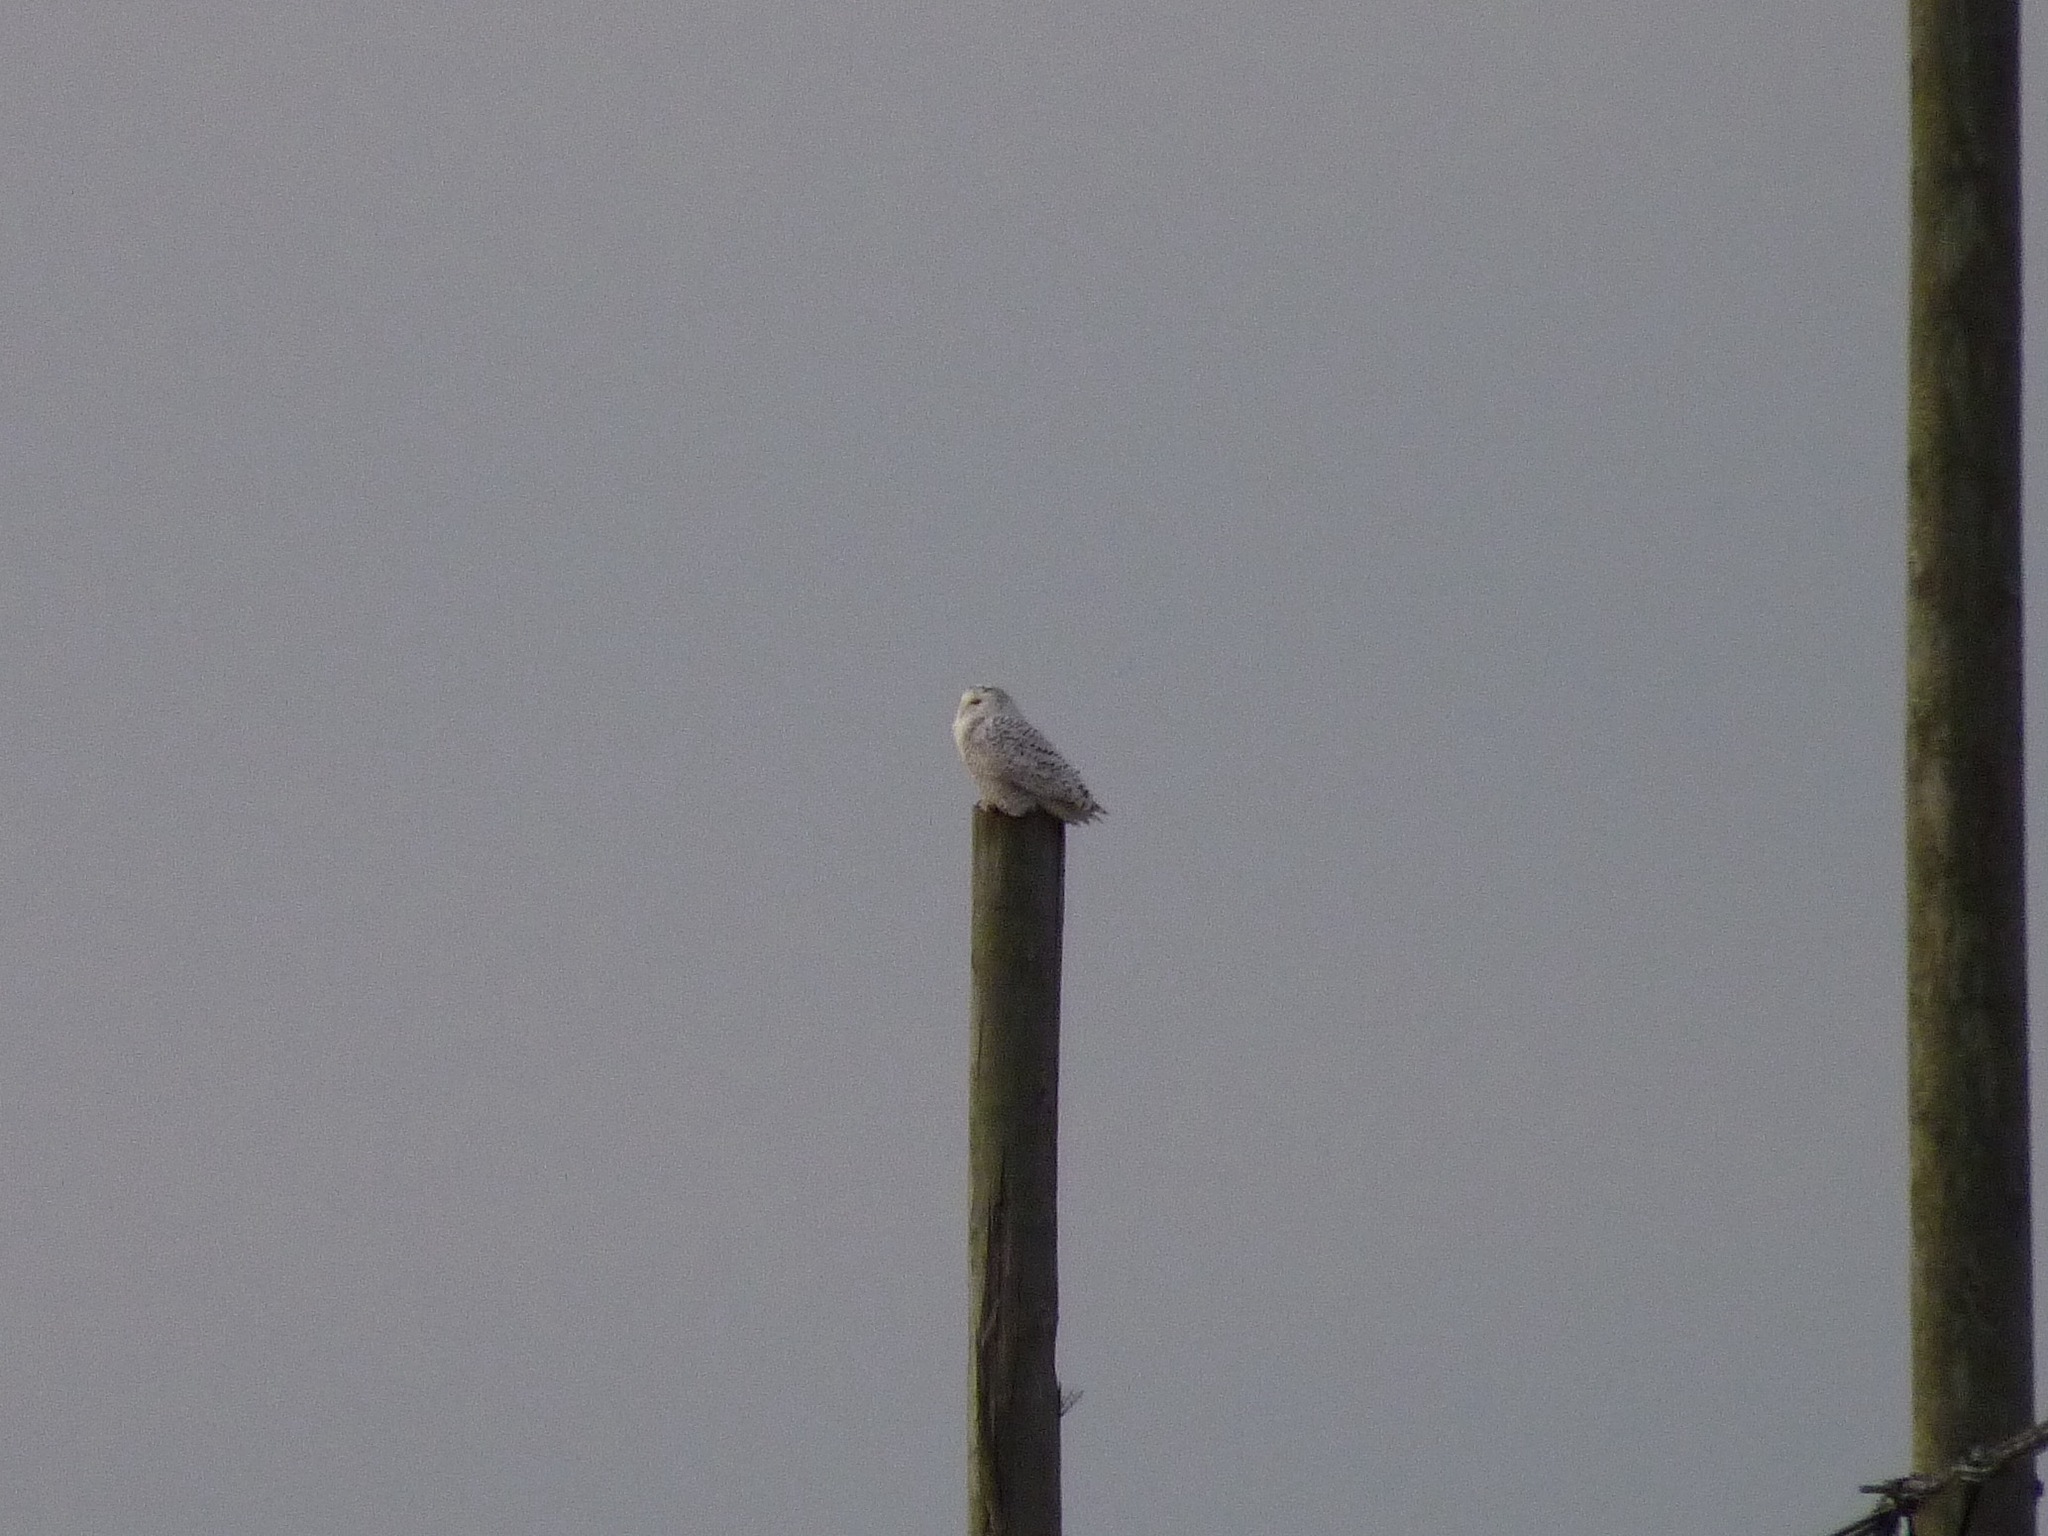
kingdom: Animalia
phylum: Chordata
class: Aves
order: Strigiformes
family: Strigidae
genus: Bubo
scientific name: Bubo scandiacus
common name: Snowy owl
